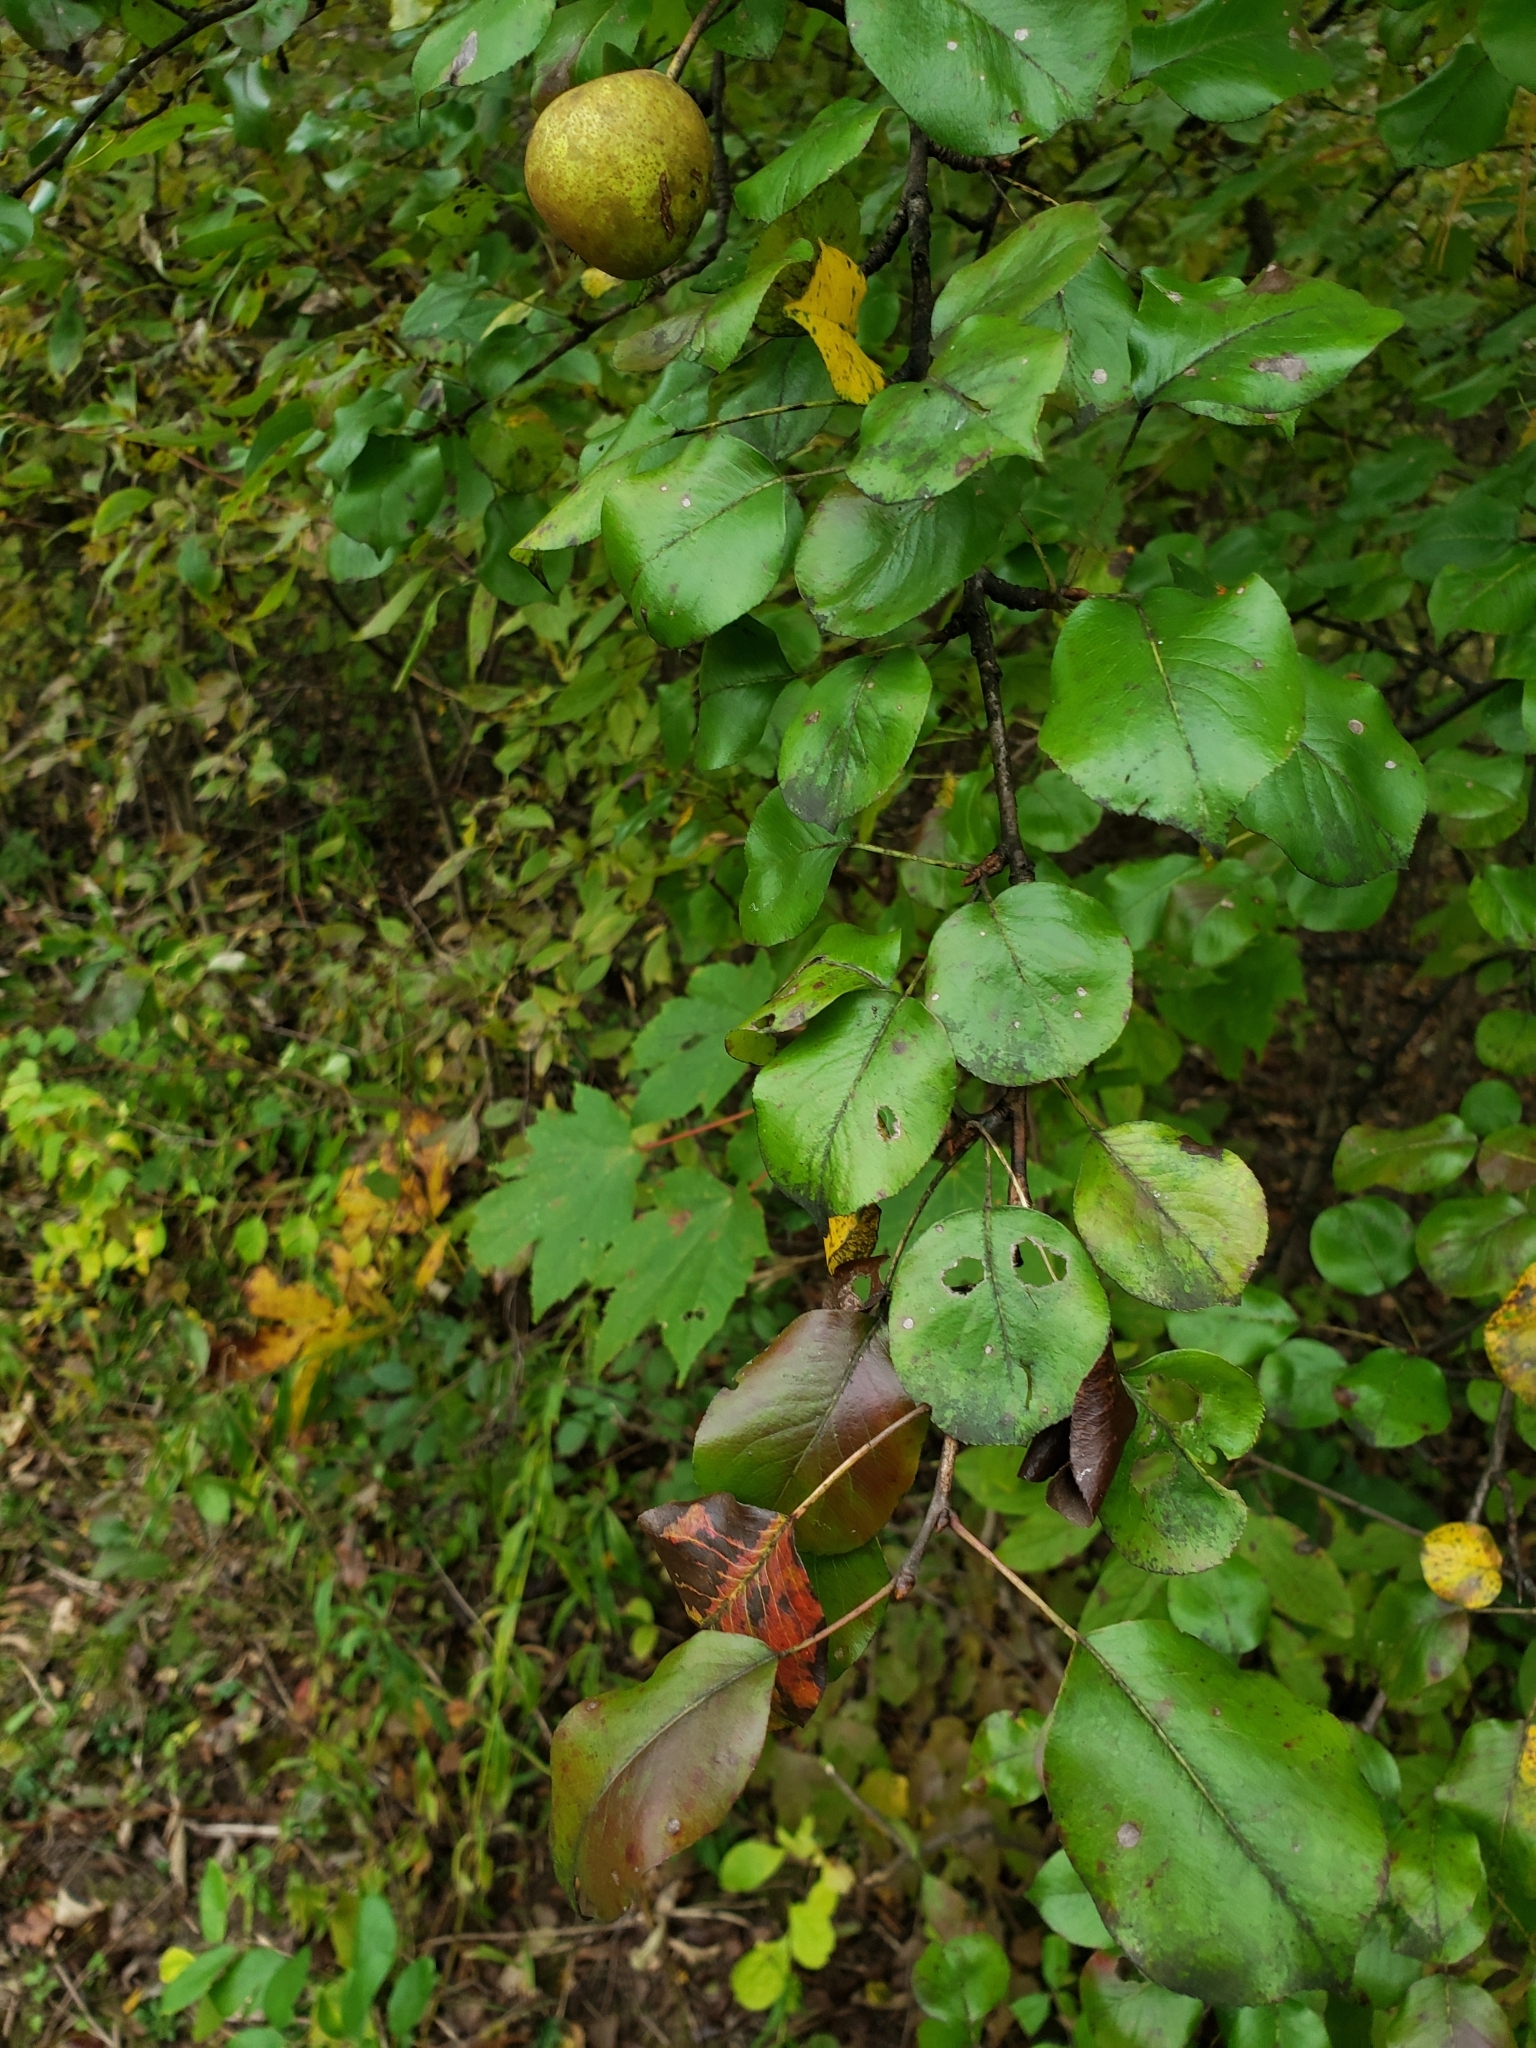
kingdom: Plantae
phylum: Tracheophyta
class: Magnoliopsida
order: Rosales
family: Rosaceae
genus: Pyrus
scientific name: Pyrus communis
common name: Pear
